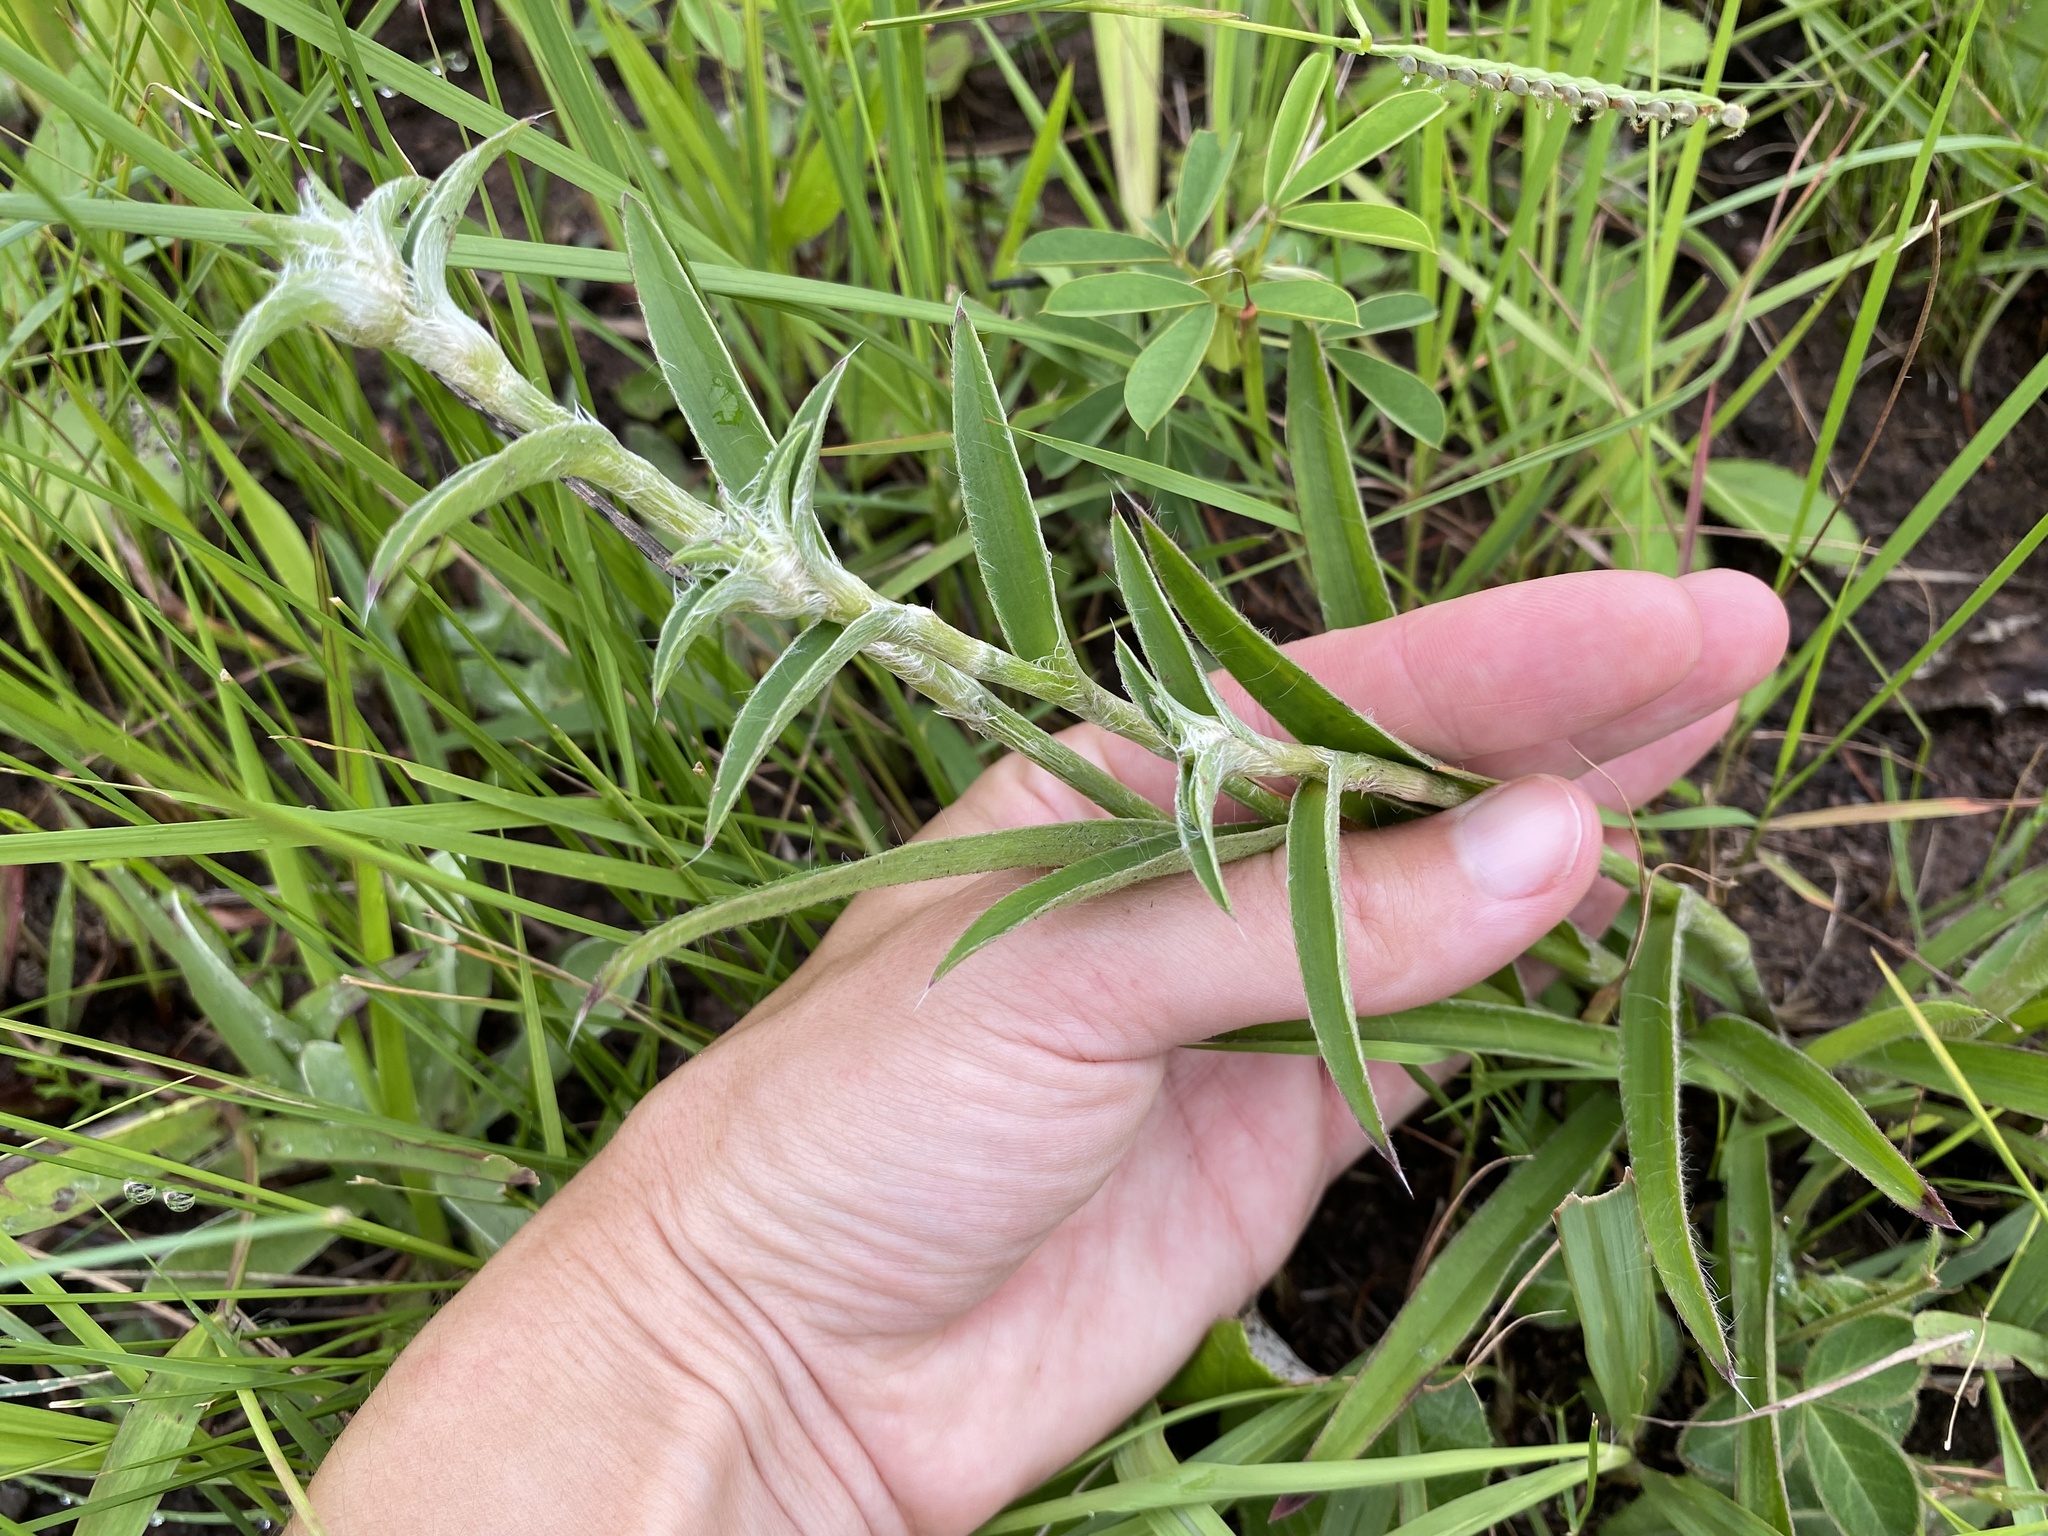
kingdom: Plantae
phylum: Tracheophyta
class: Liliopsida
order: Commelinales
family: Commelinaceae
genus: Cyanotis
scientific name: Cyanotis speciosa
